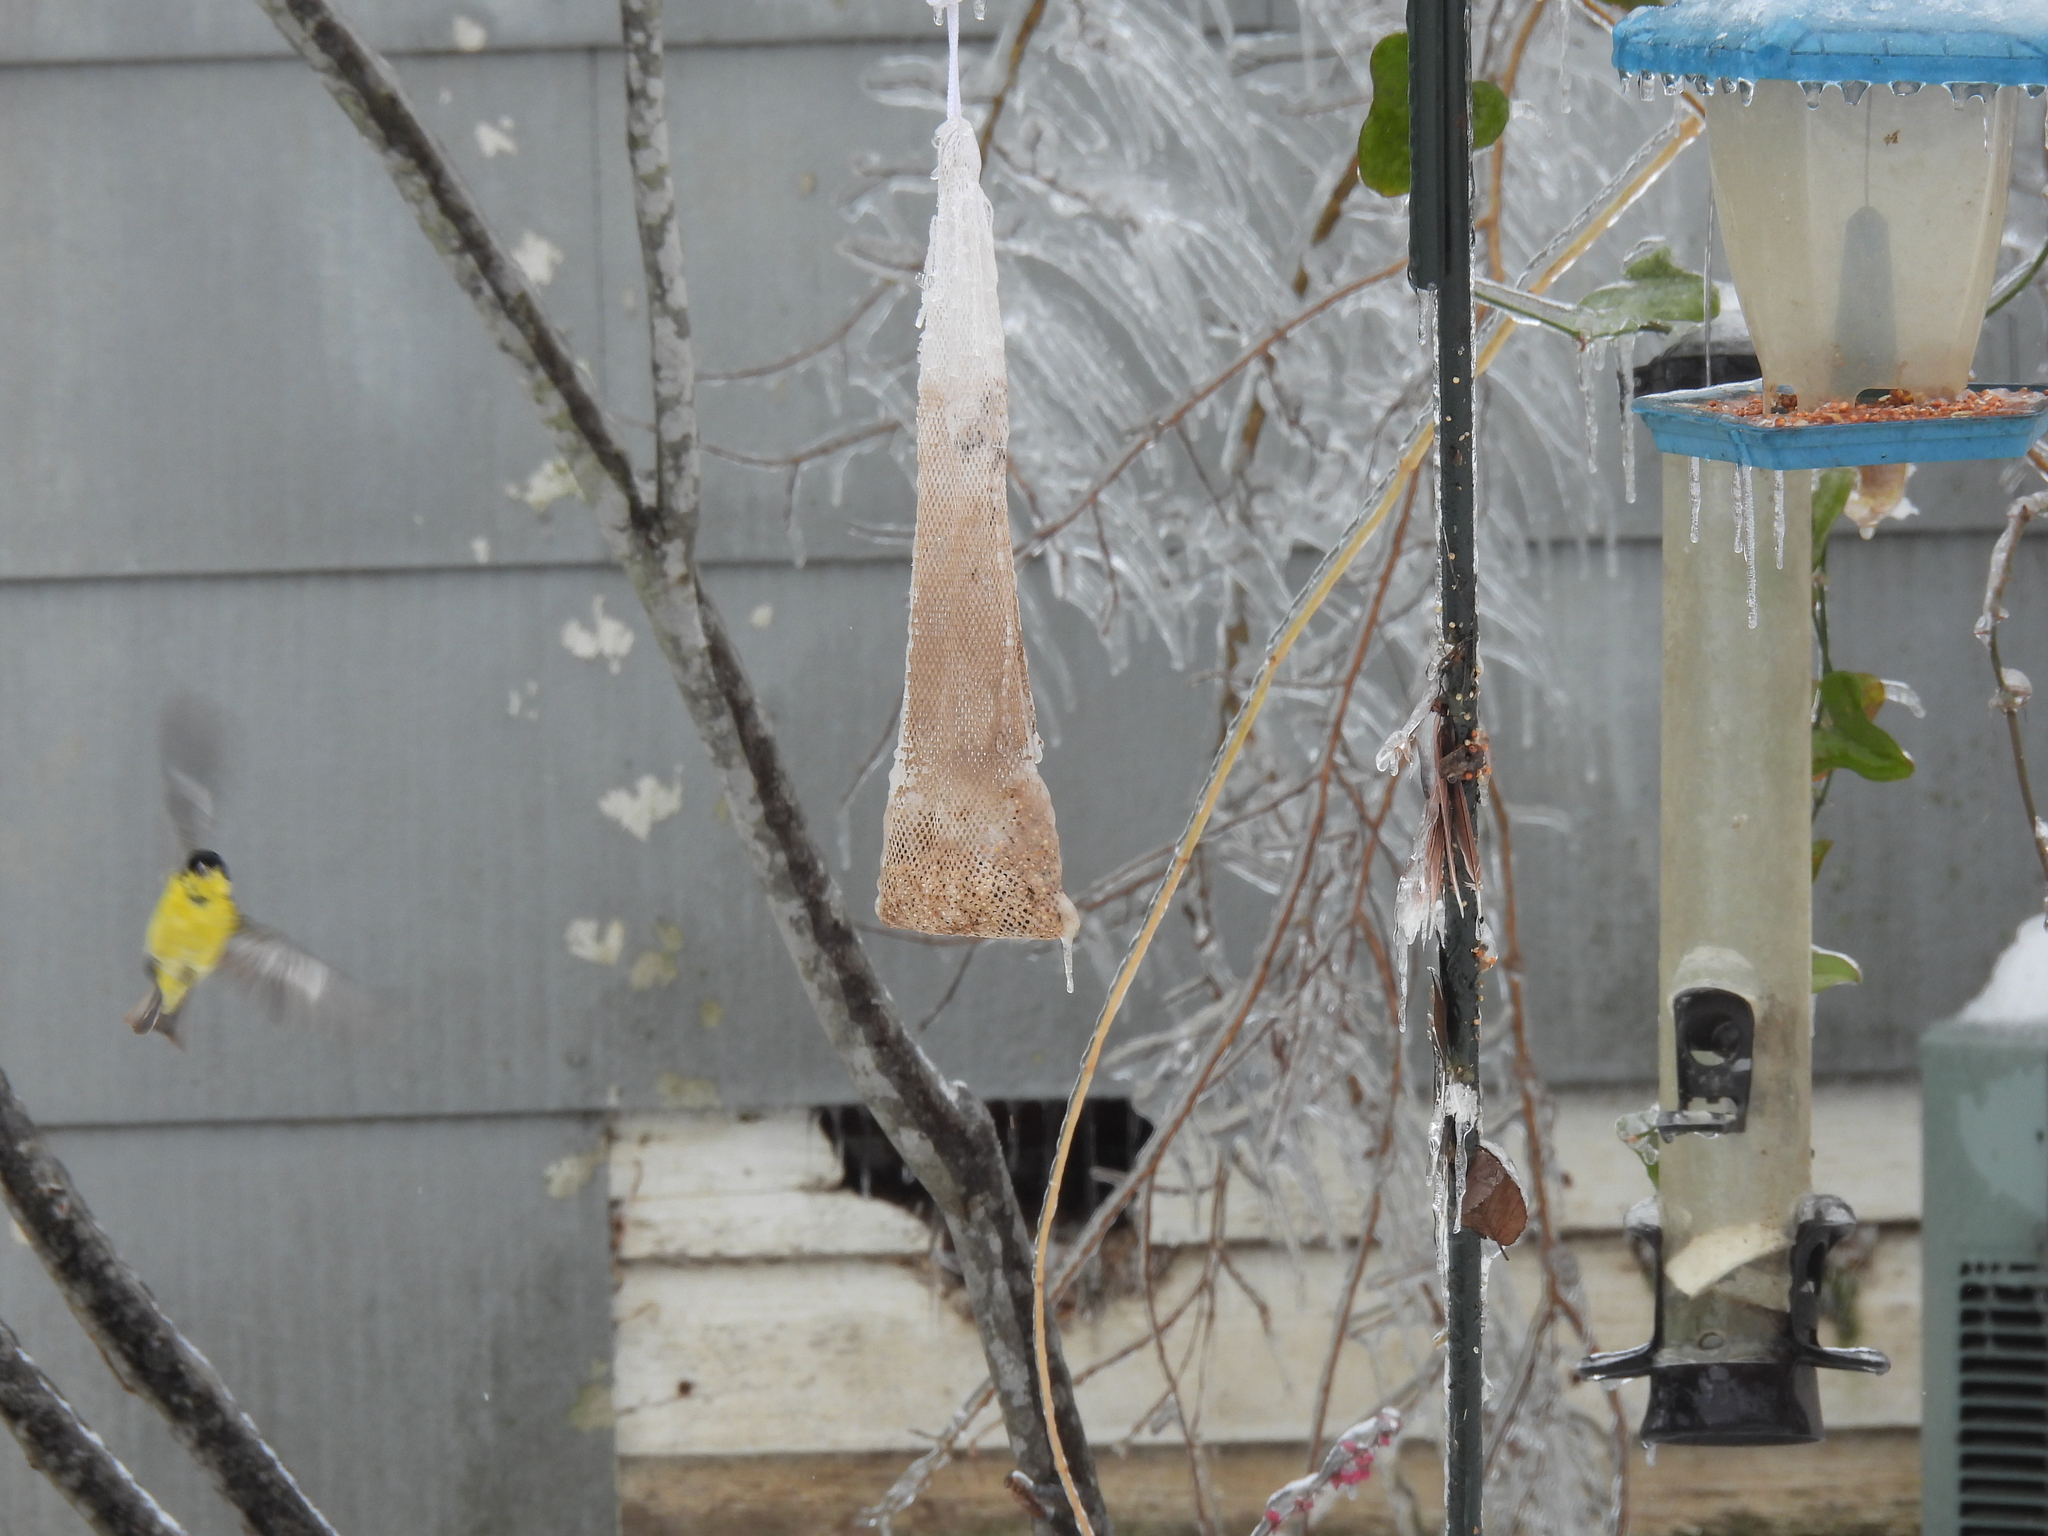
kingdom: Animalia
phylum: Chordata
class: Aves
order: Passeriformes
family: Fringillidae
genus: Spinus
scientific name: Spinus psaltria
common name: Lesser goldfinch
